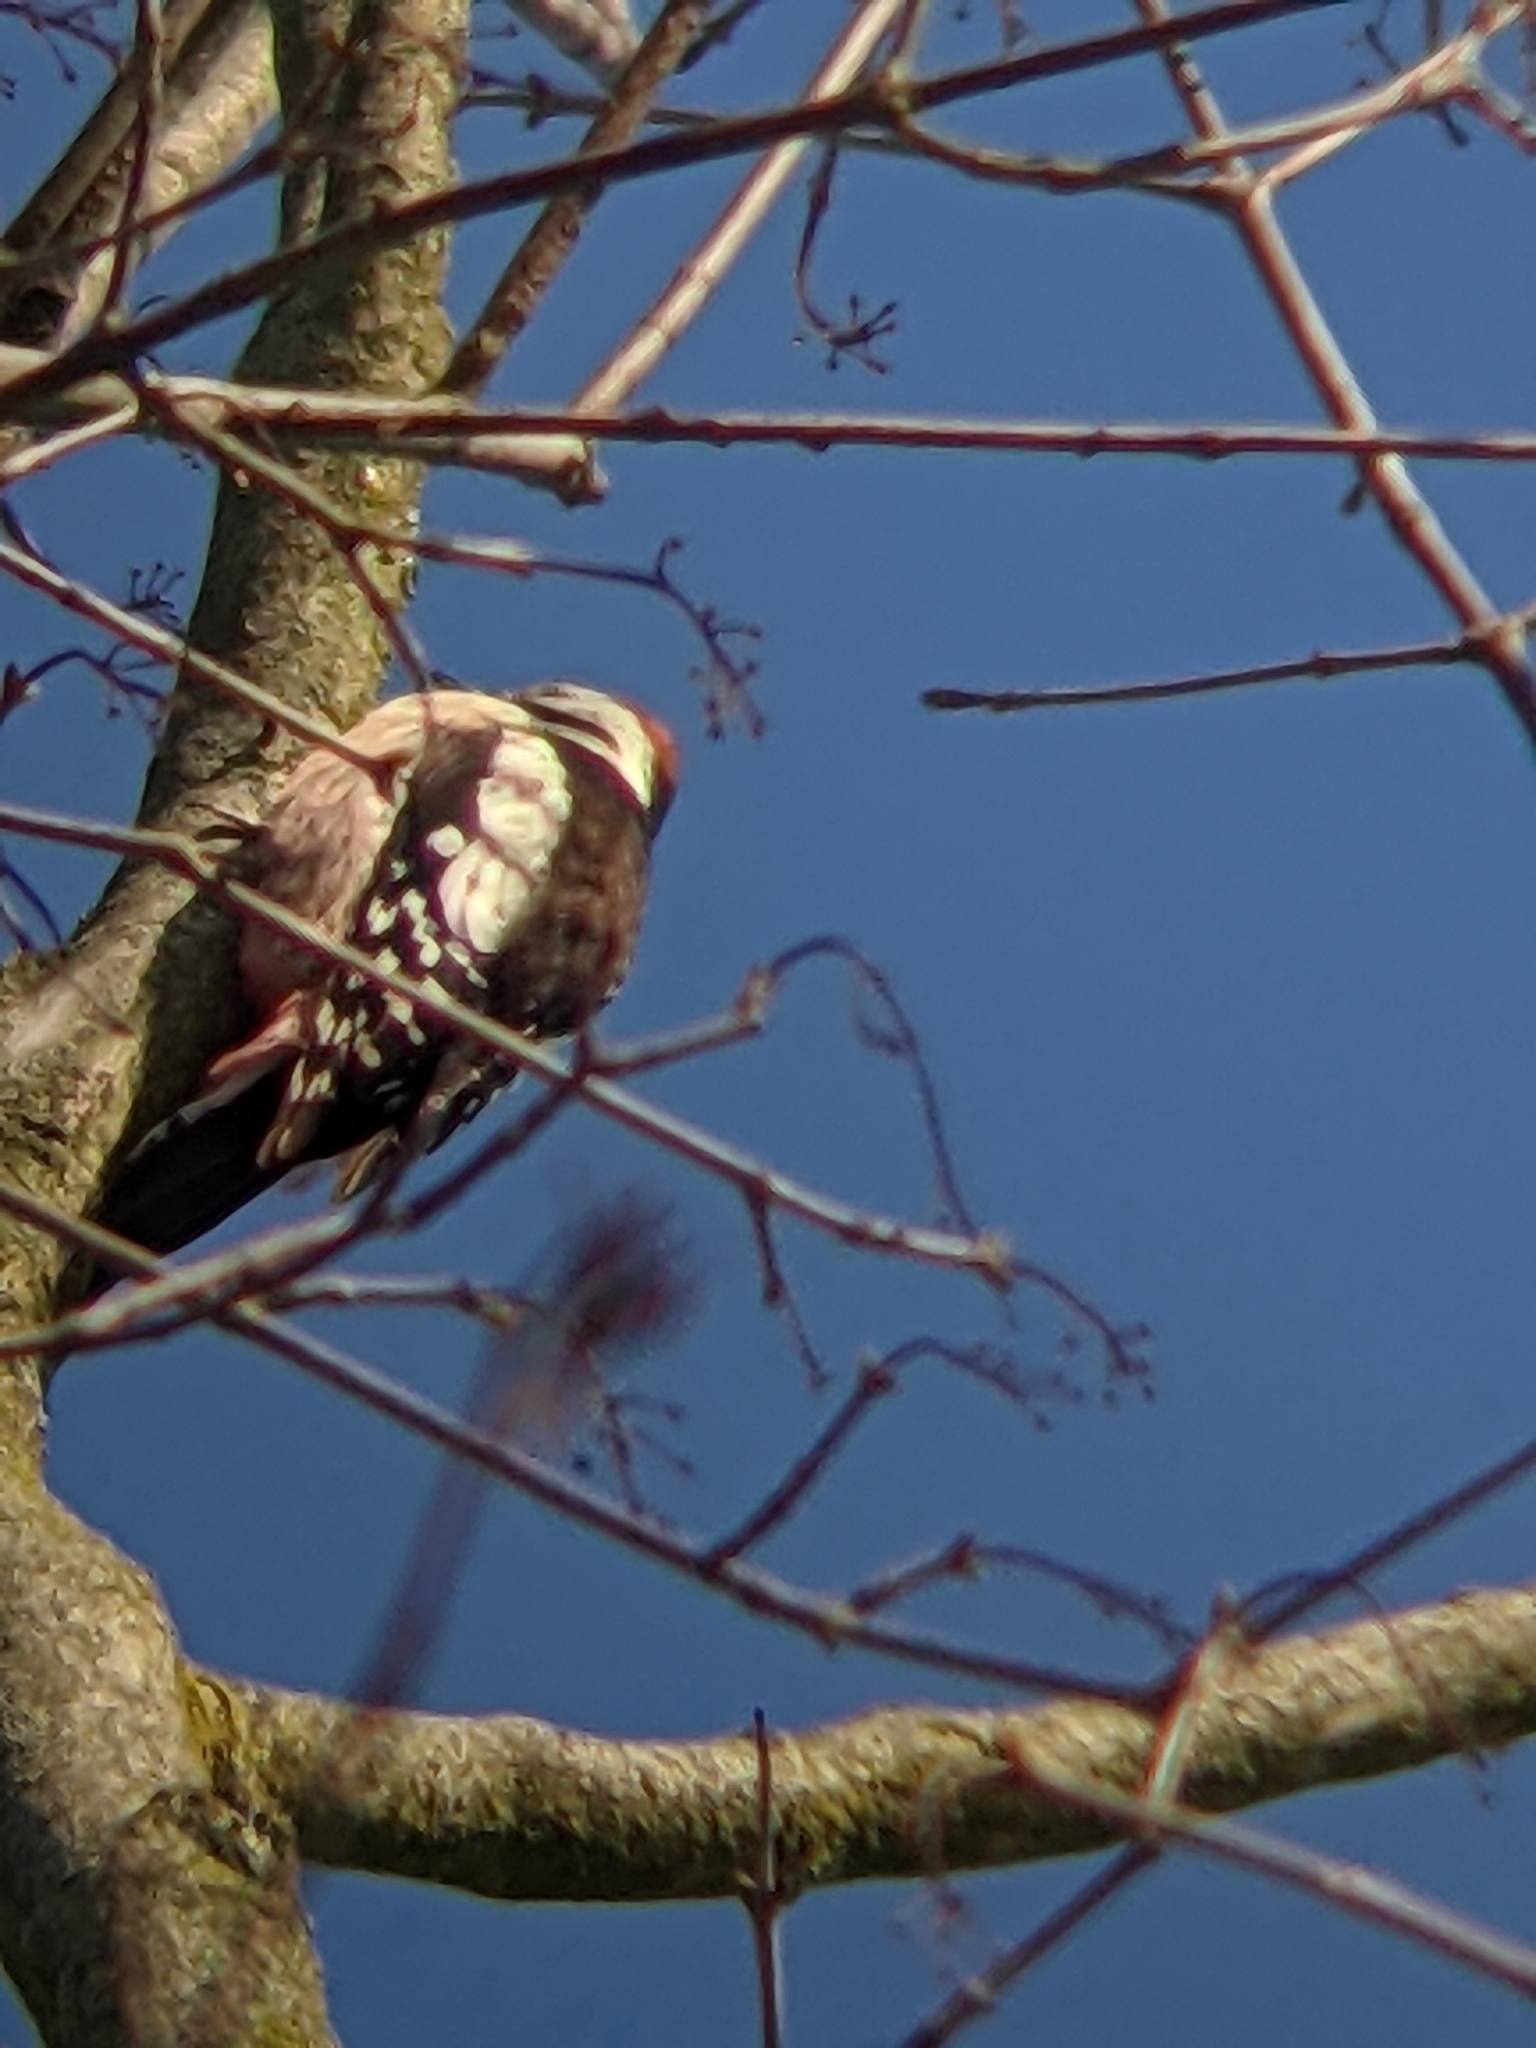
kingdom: Animalia
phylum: Chordata
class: Aves
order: Piciformes
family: Picidae
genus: Dendrocoptes
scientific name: Dendrocoptes medius
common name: Middle spotted woodpecker
